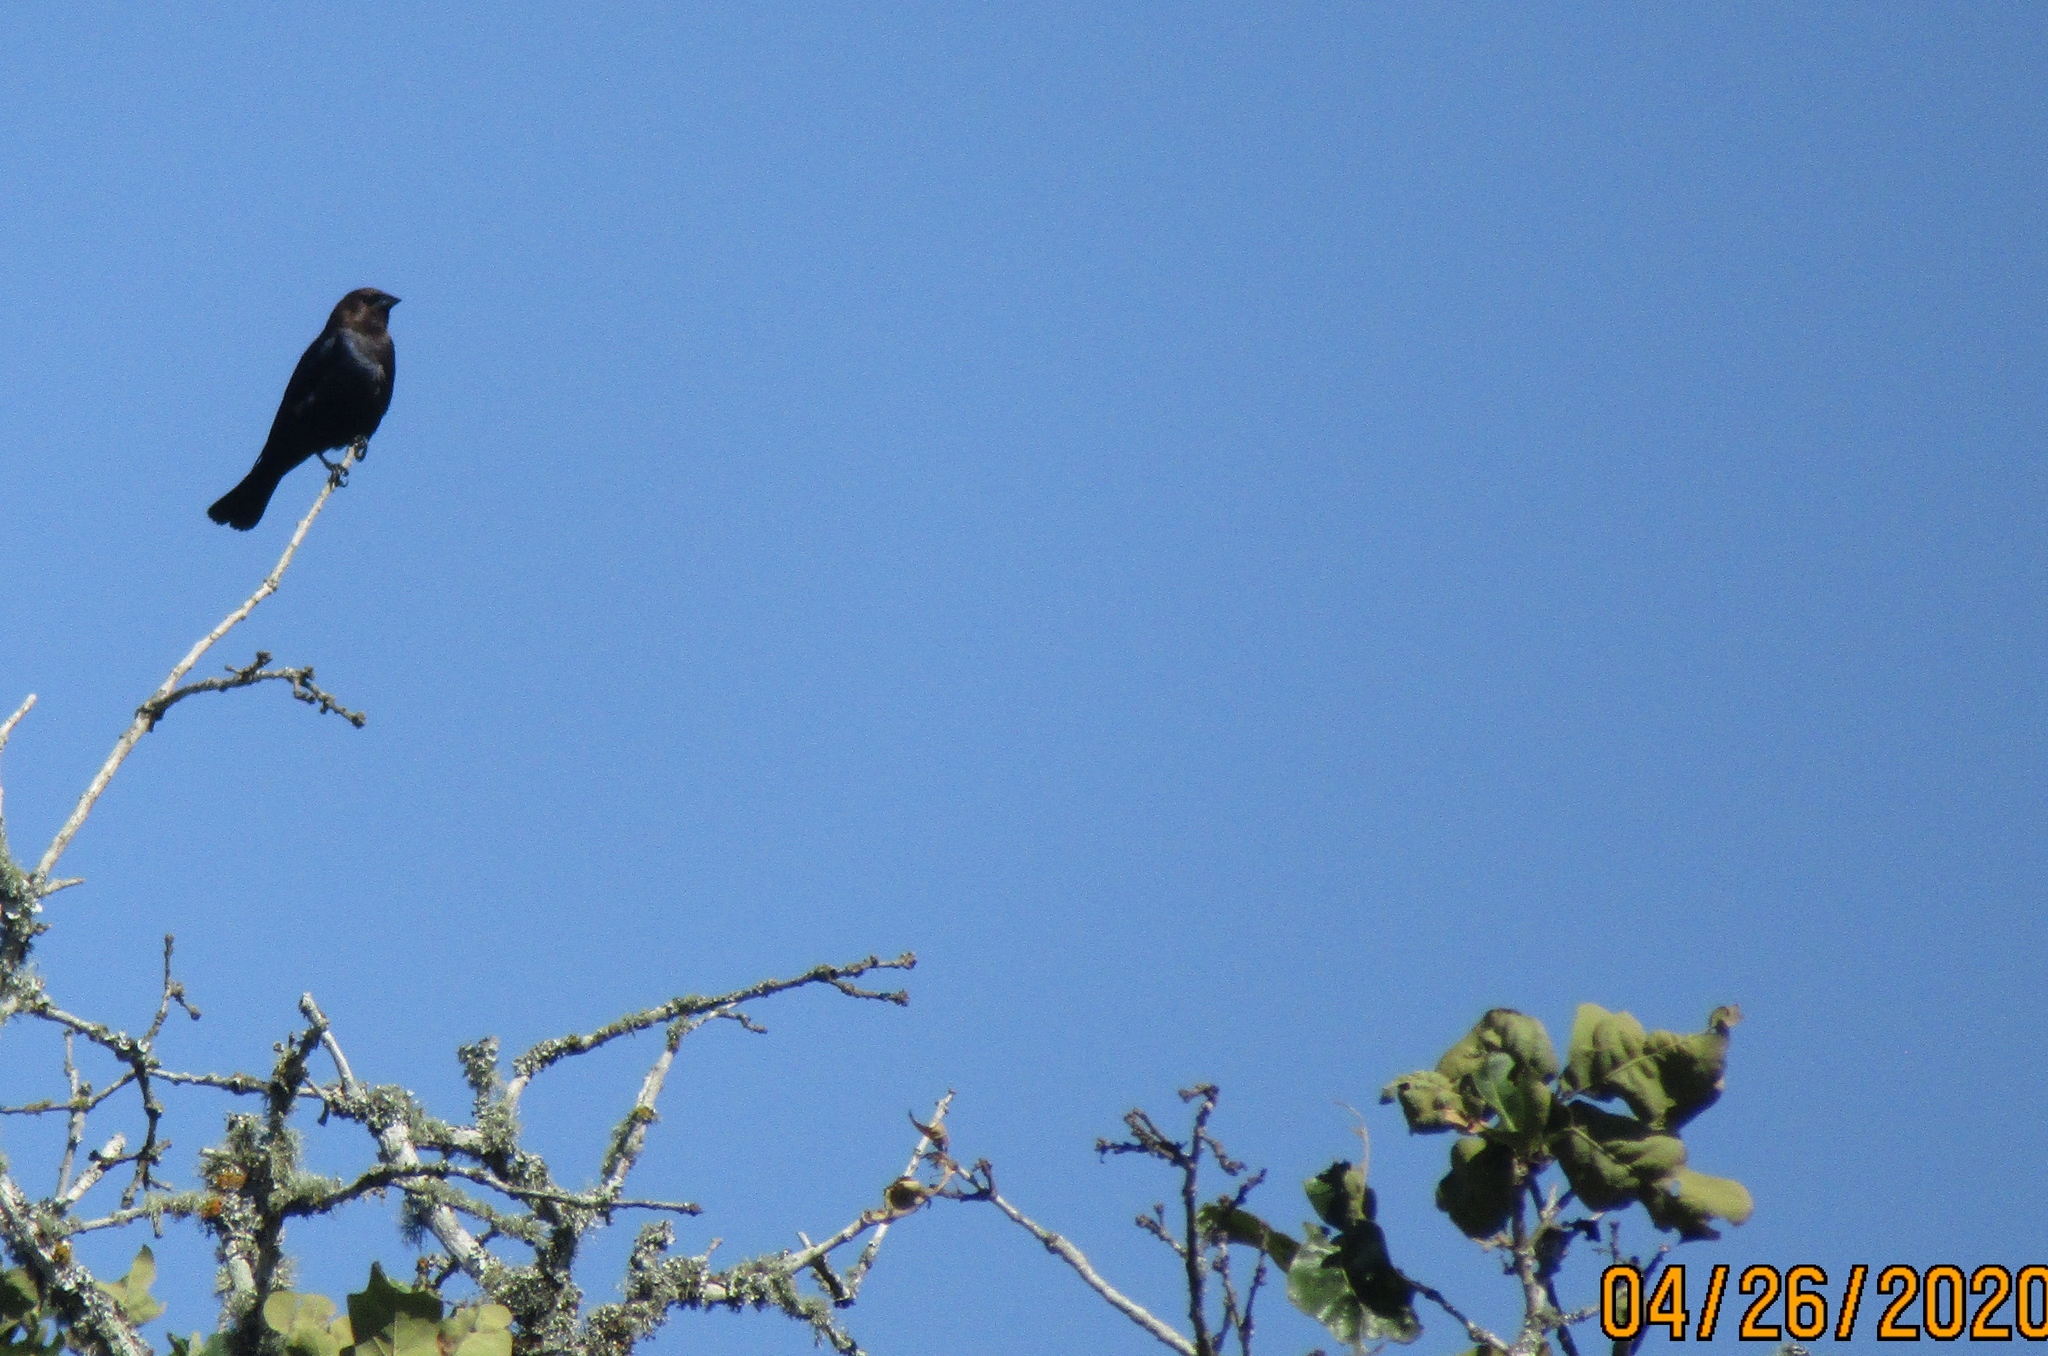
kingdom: Animalia
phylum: Chordata
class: Aves
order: Passeriformes
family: Icteridae
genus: Molothrus
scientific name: Molothrus ater
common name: Brown-headed cowbird
